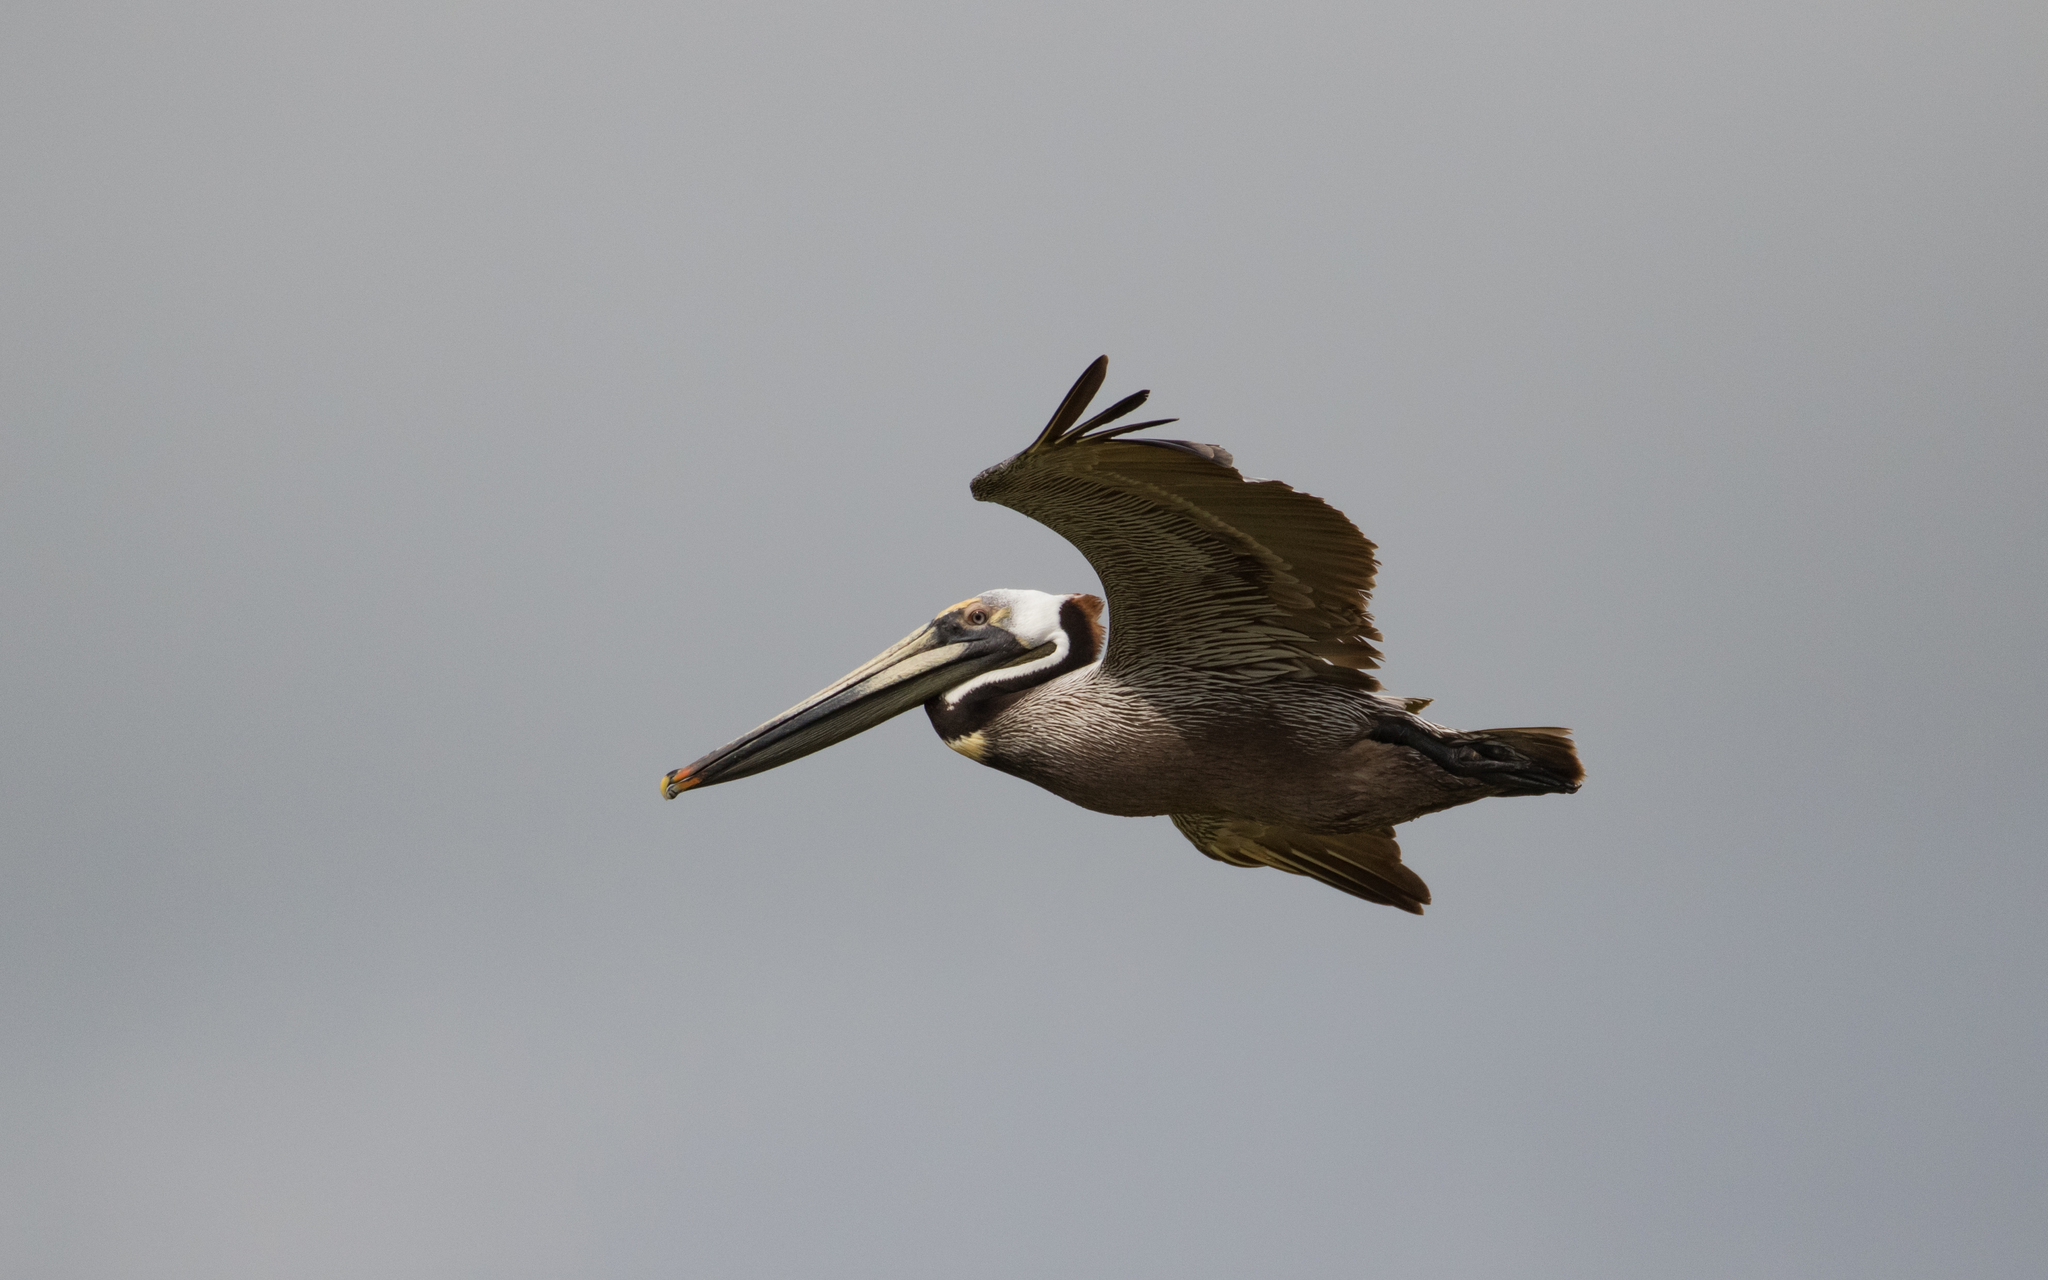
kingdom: Animalia
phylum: Chordata
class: Aves
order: Pelecaniformes
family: Pelecanidae
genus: Pelecanus
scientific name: Pelecanus occidentalis
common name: Brown pelican
